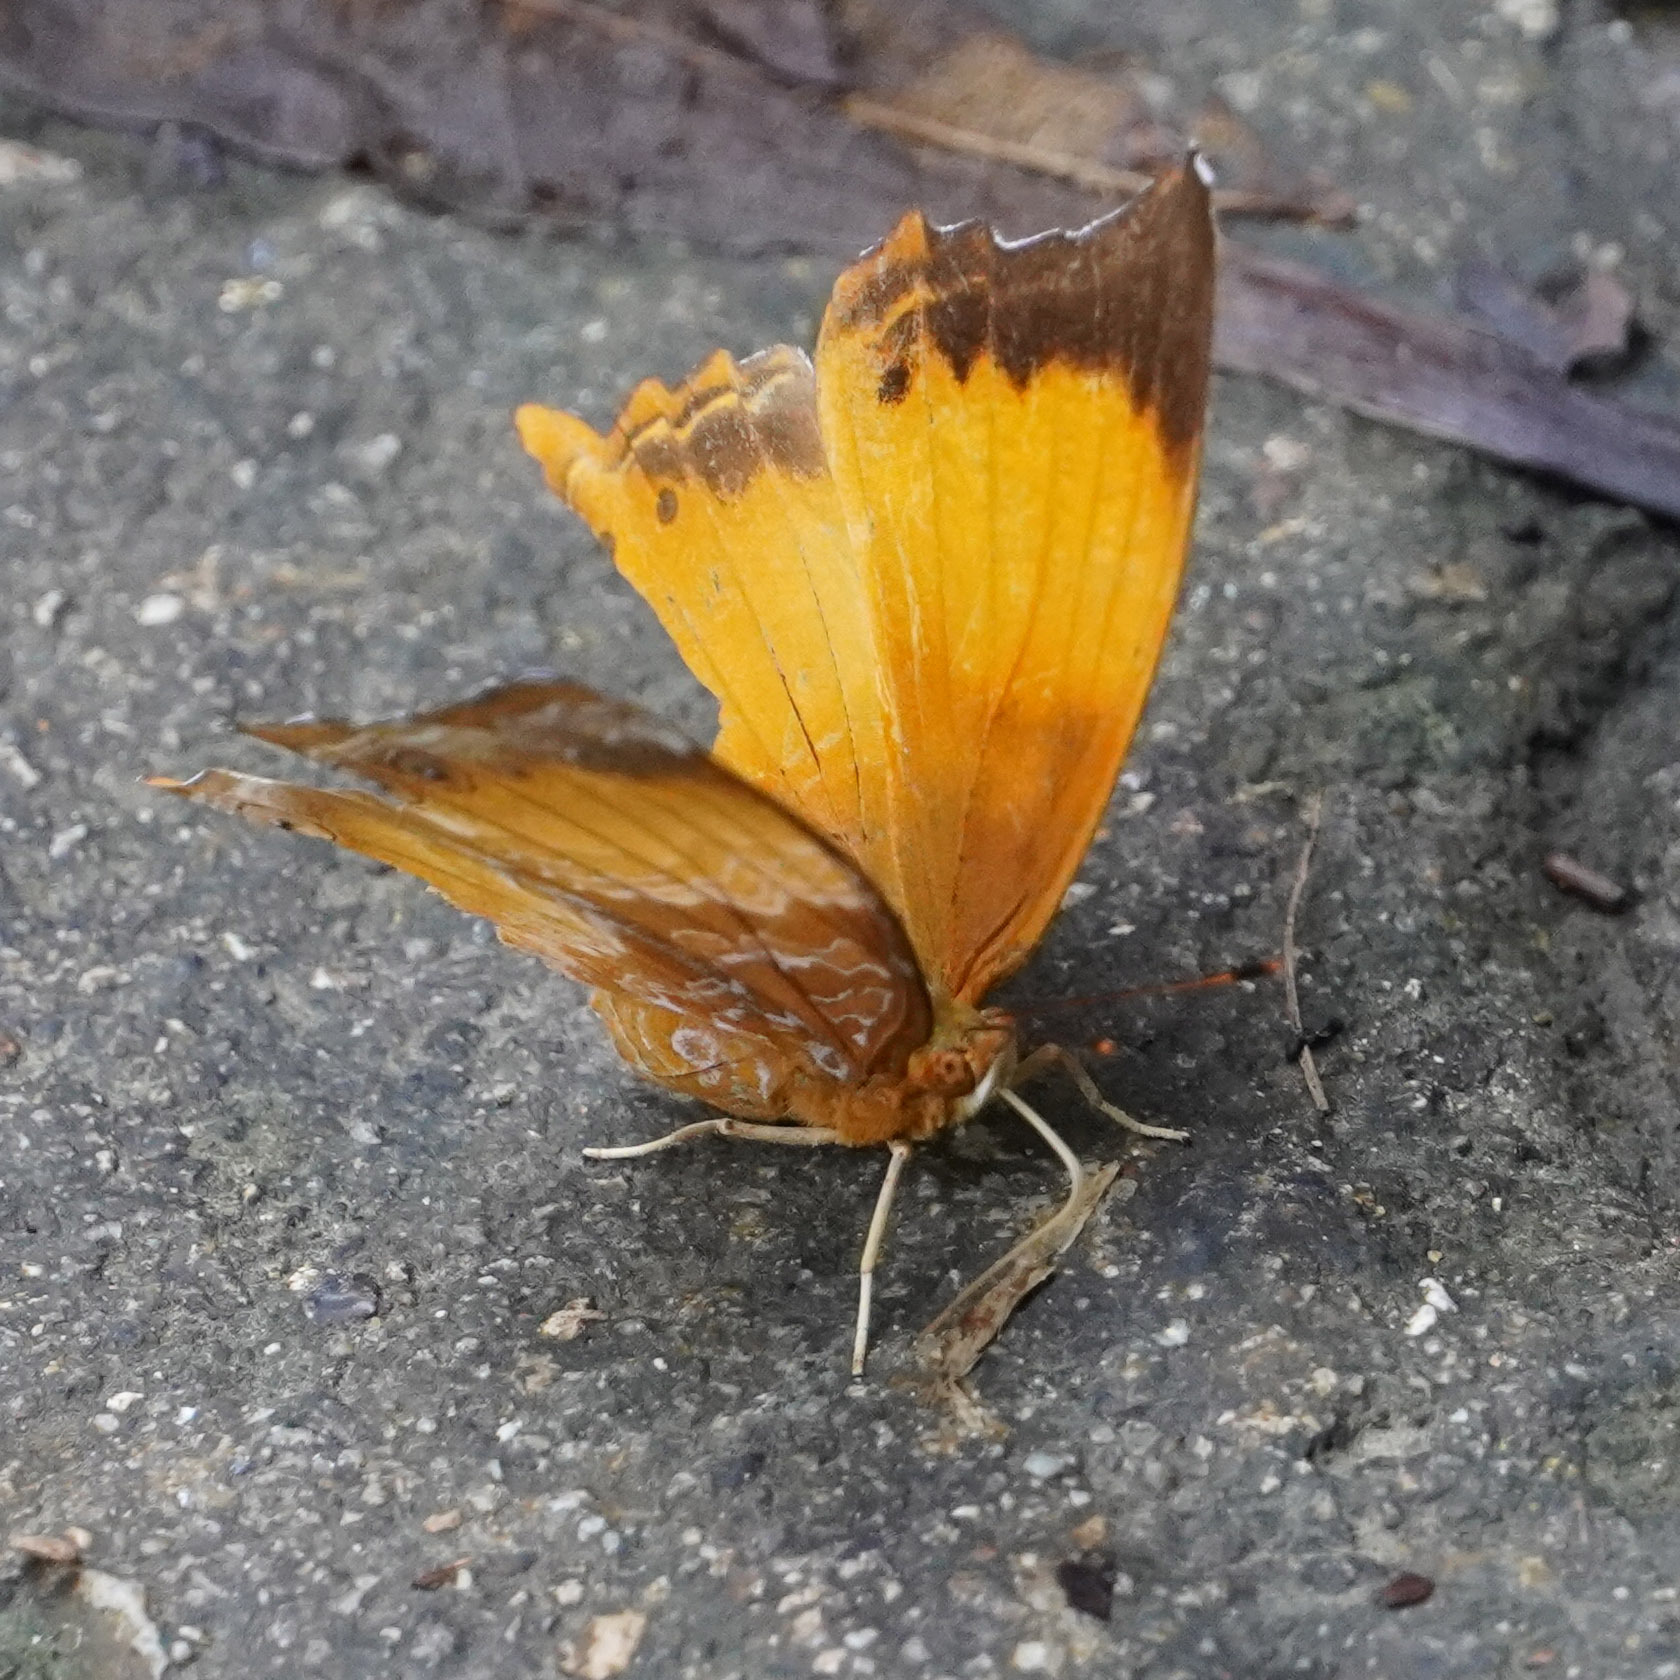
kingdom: Animalia
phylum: Arthropoda
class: Insecta
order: Lepidoptera
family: Nymphalidae
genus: Rhinopalpa
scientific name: Rhinopalpa polynice
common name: Wizard
